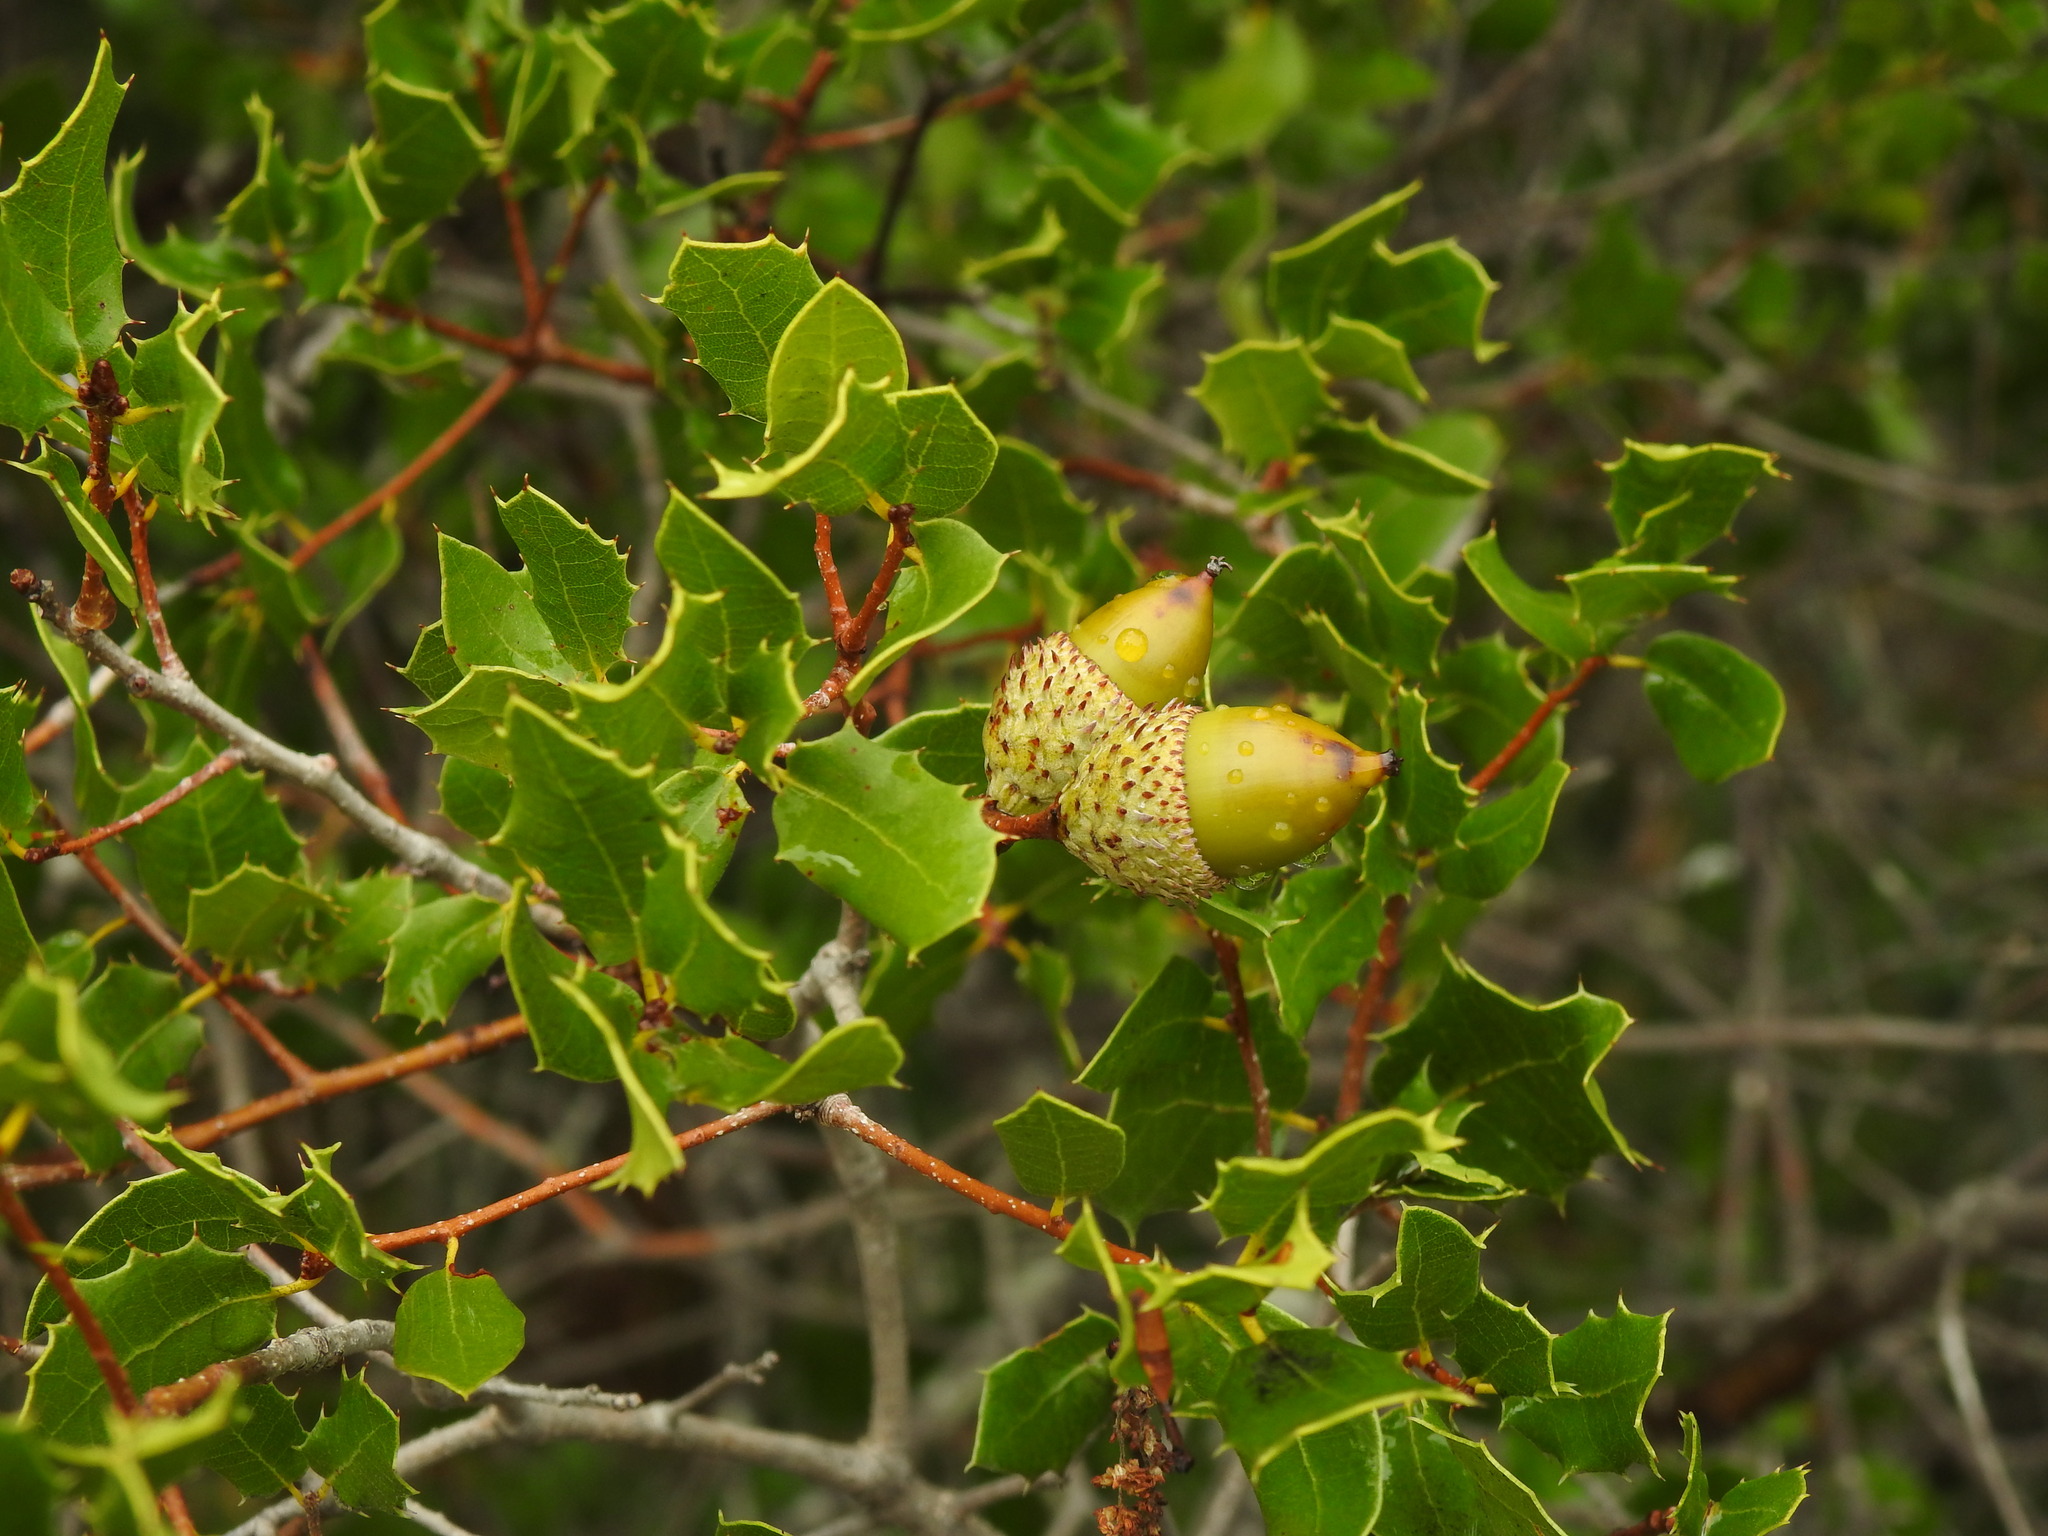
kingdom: Plantae
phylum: Tracheophyta
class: Magnoliopsida
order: Fagales
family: Fagaceae
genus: Quercus
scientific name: Quercus coccifera
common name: Kermes oak
